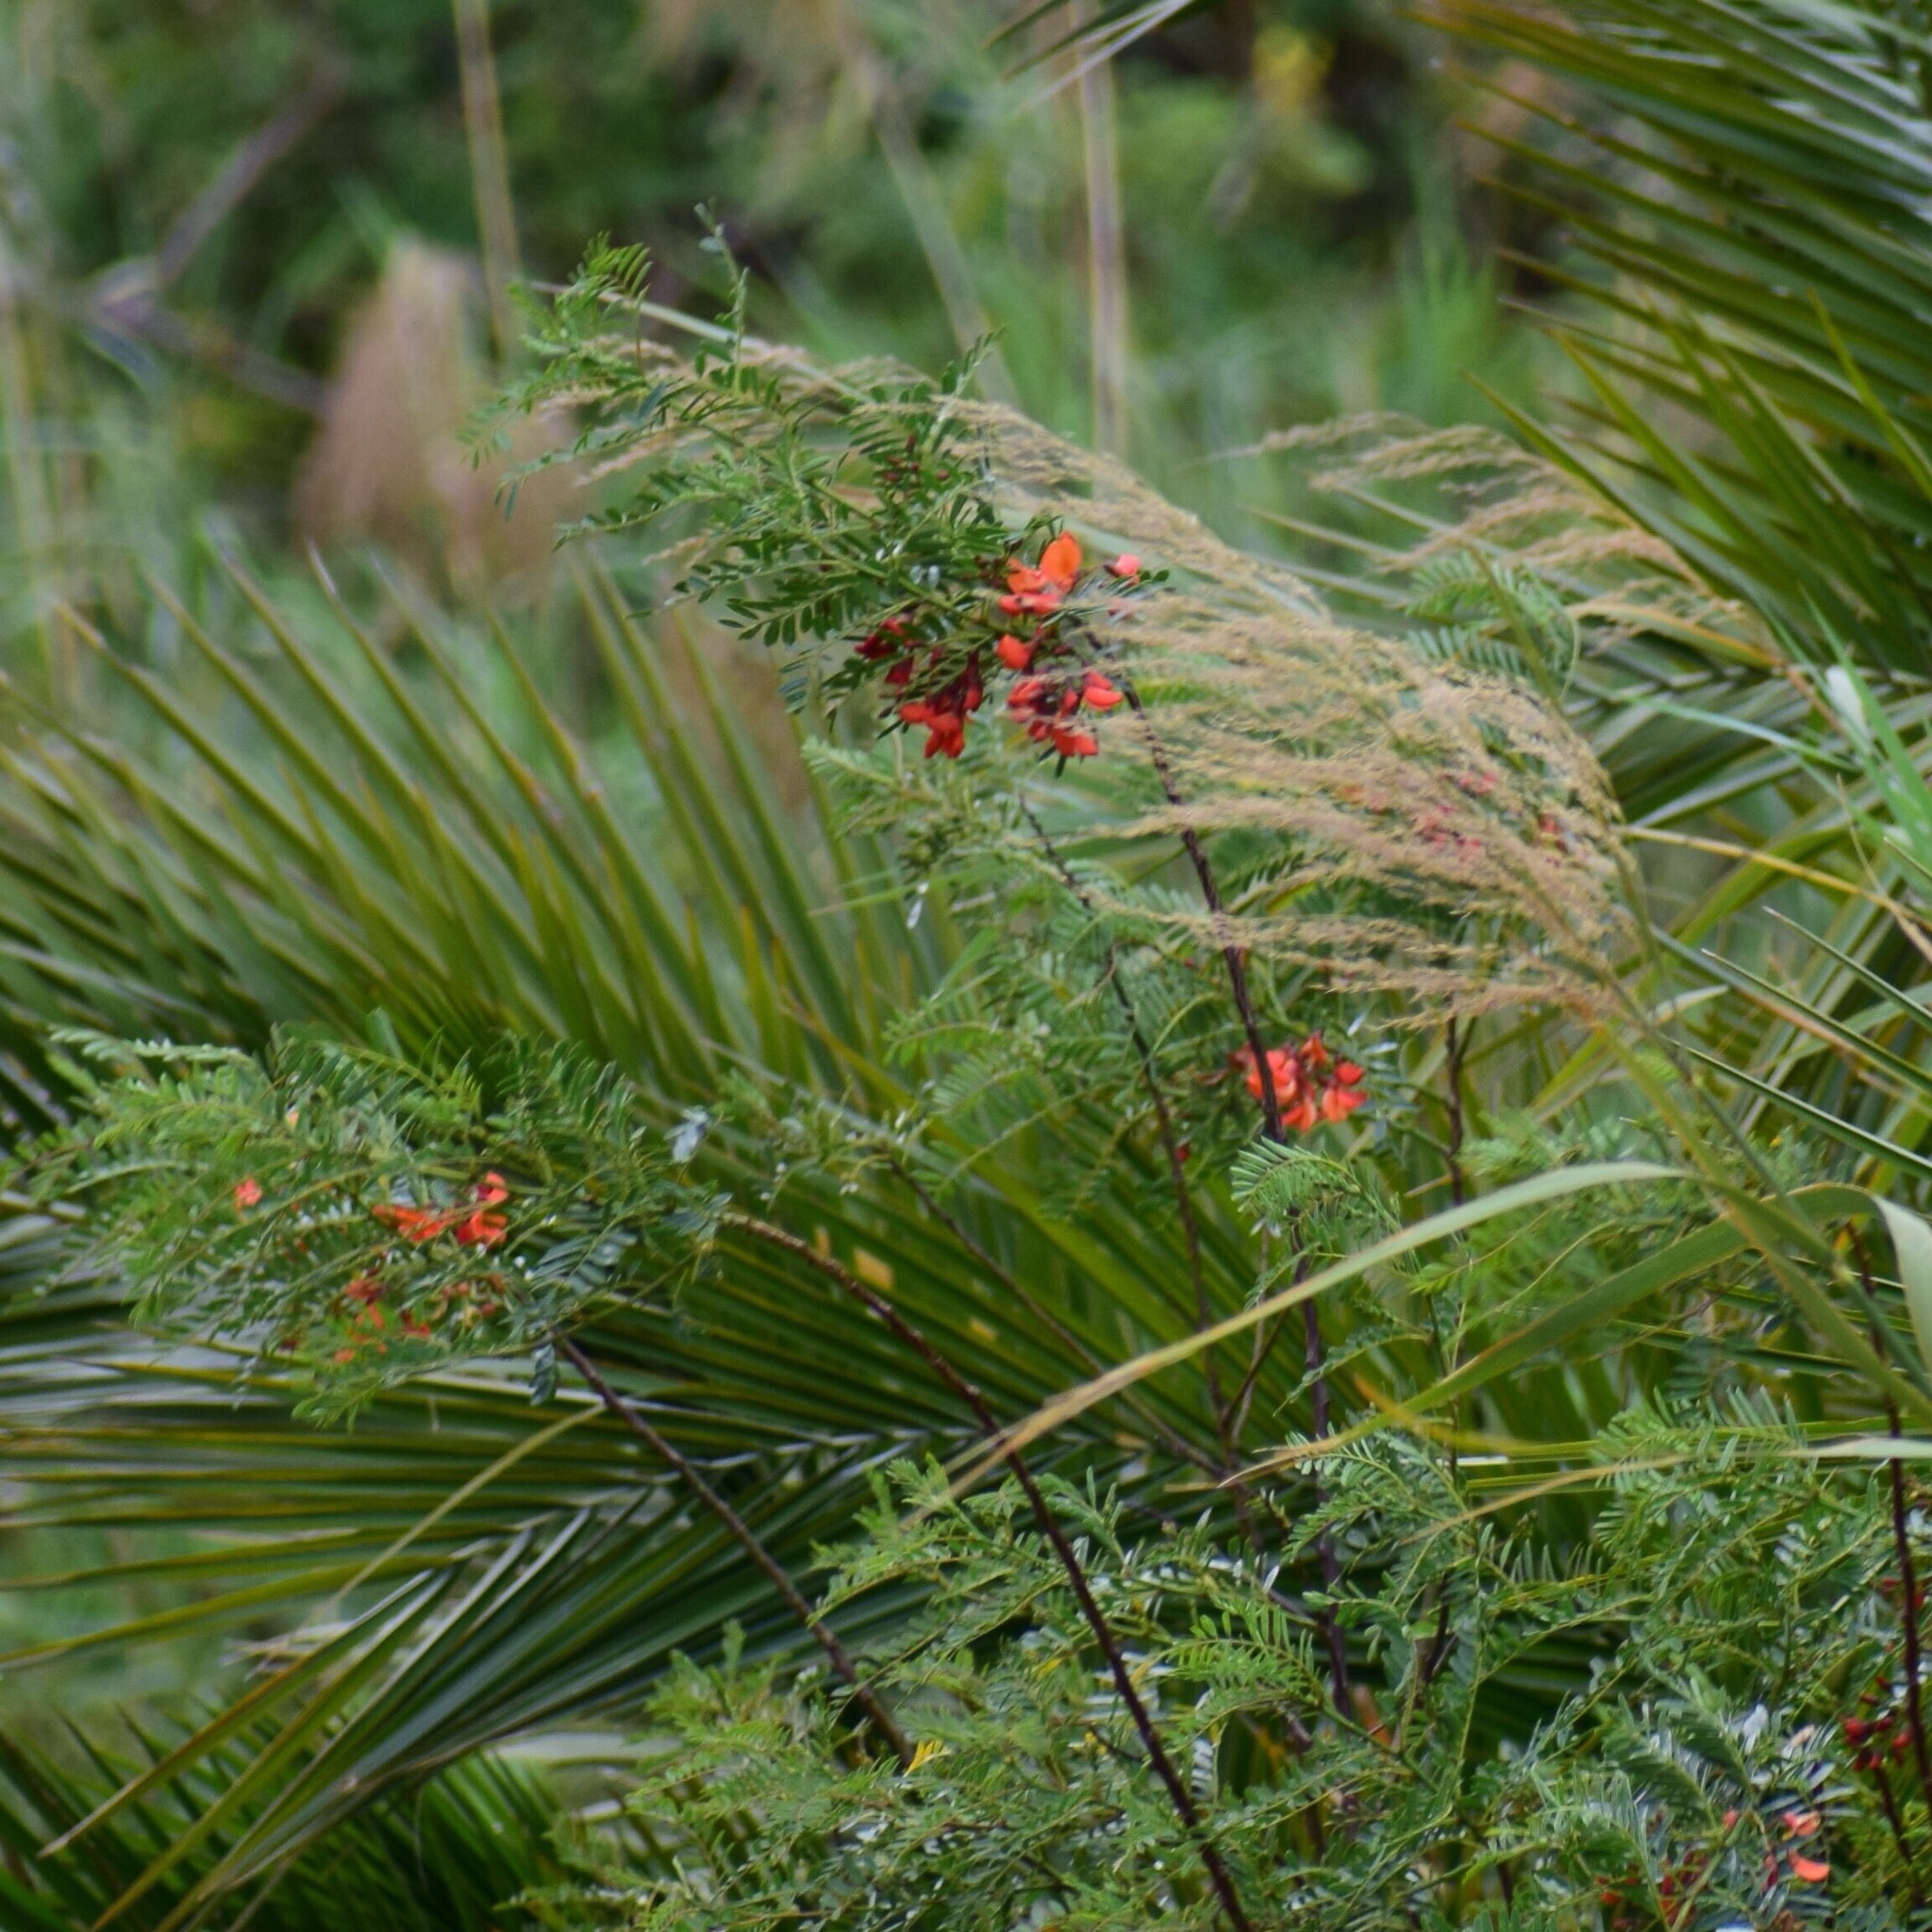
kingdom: Plantae
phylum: Tracheophyta
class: Magnoliopsida
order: Fabales
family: Fabaceae
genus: Sesbania
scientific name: Sesbania punicea
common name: Rattlebox
